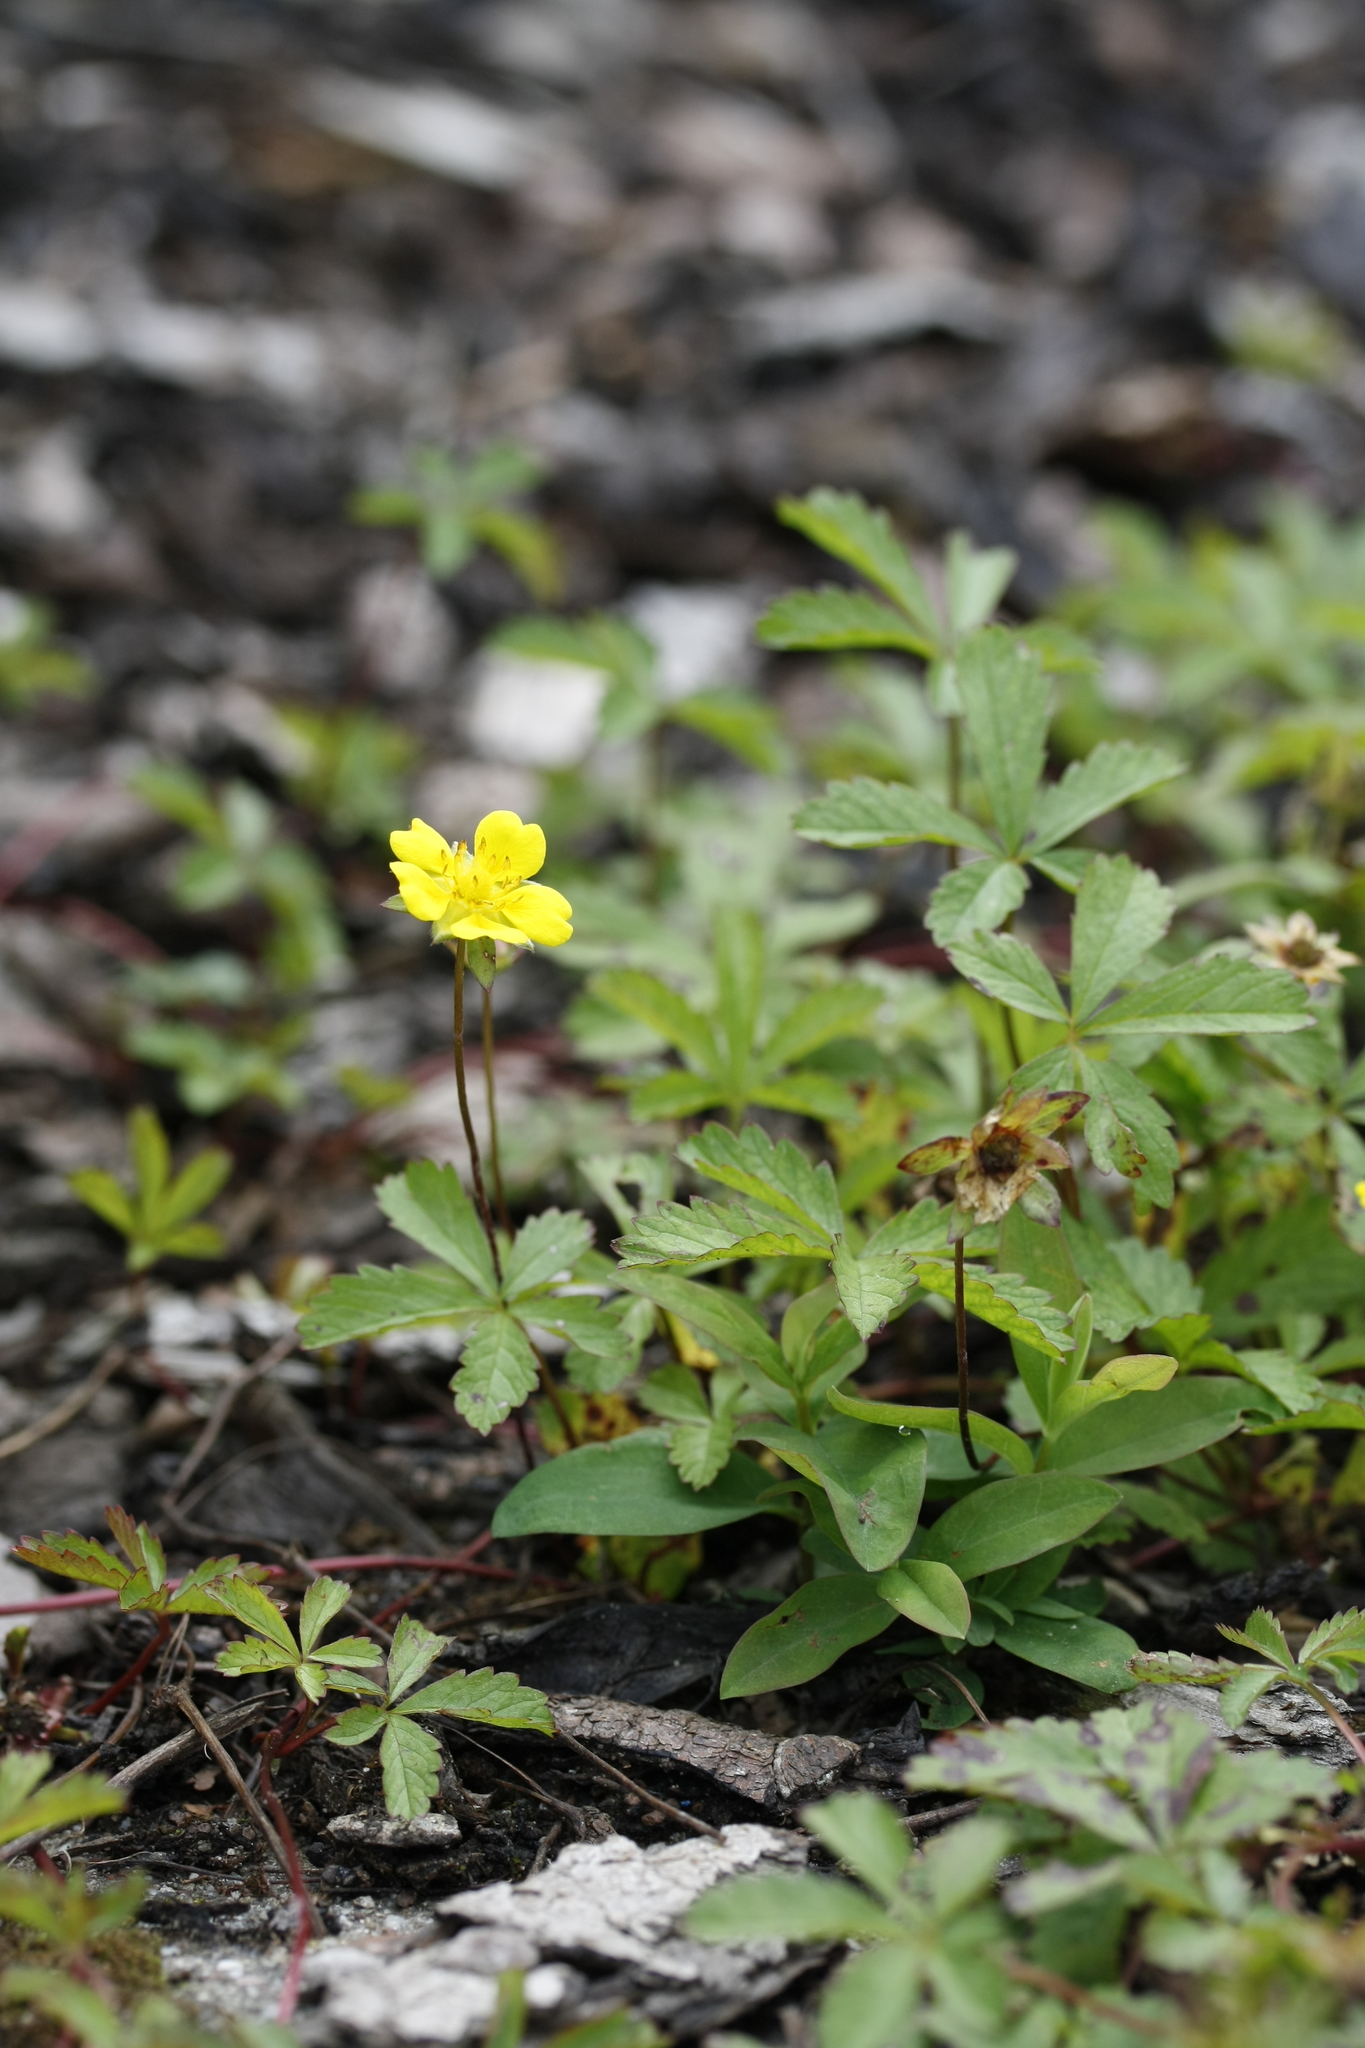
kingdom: Plantae
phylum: Tracheophyta
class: Magnoliopsida
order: Rosales
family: Rosaceae
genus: Potentilla
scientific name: Potentilla reptans
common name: Creeping cinquefoil
